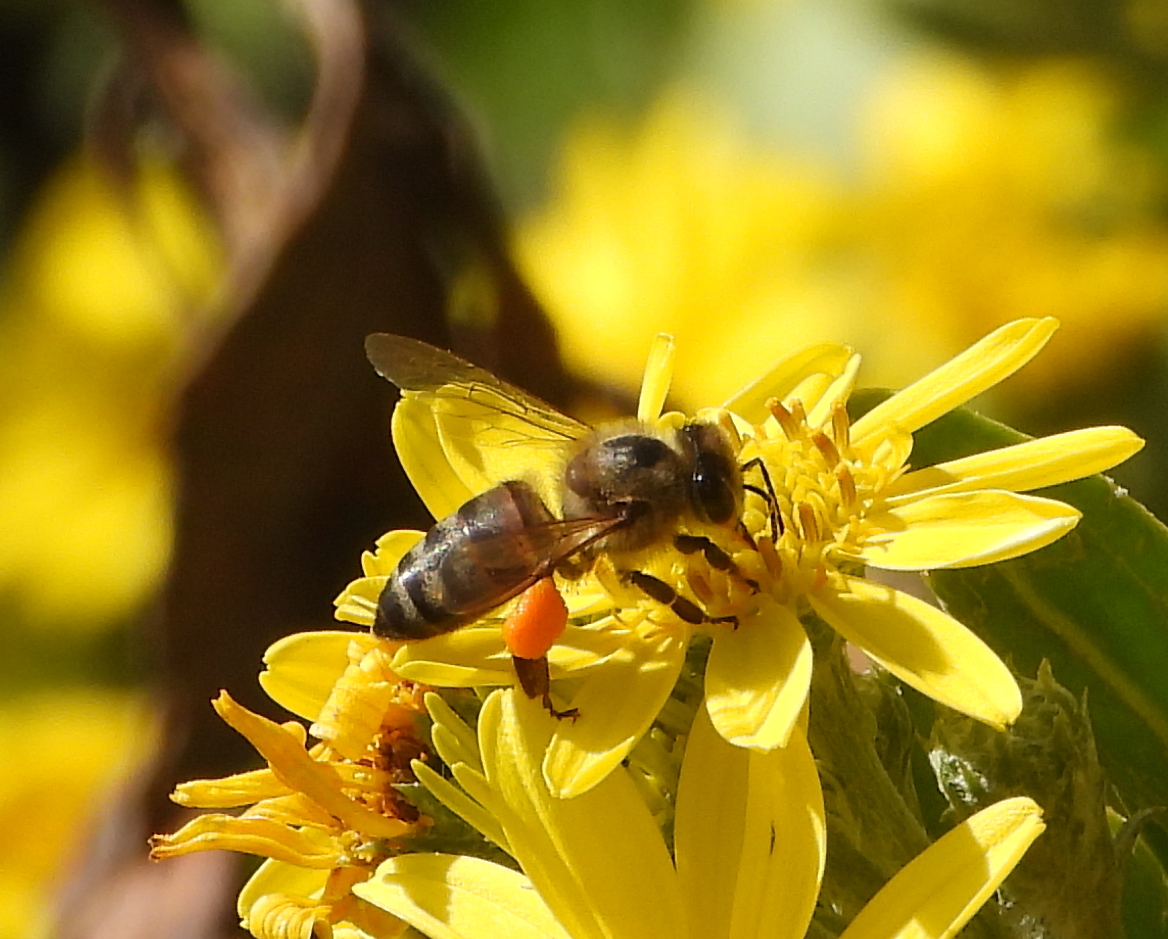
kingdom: Animalia
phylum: Arthropoda
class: Insecta
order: Hymenoptera
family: Apidae
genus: Apis
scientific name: Apis mellifera
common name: Honey bee
